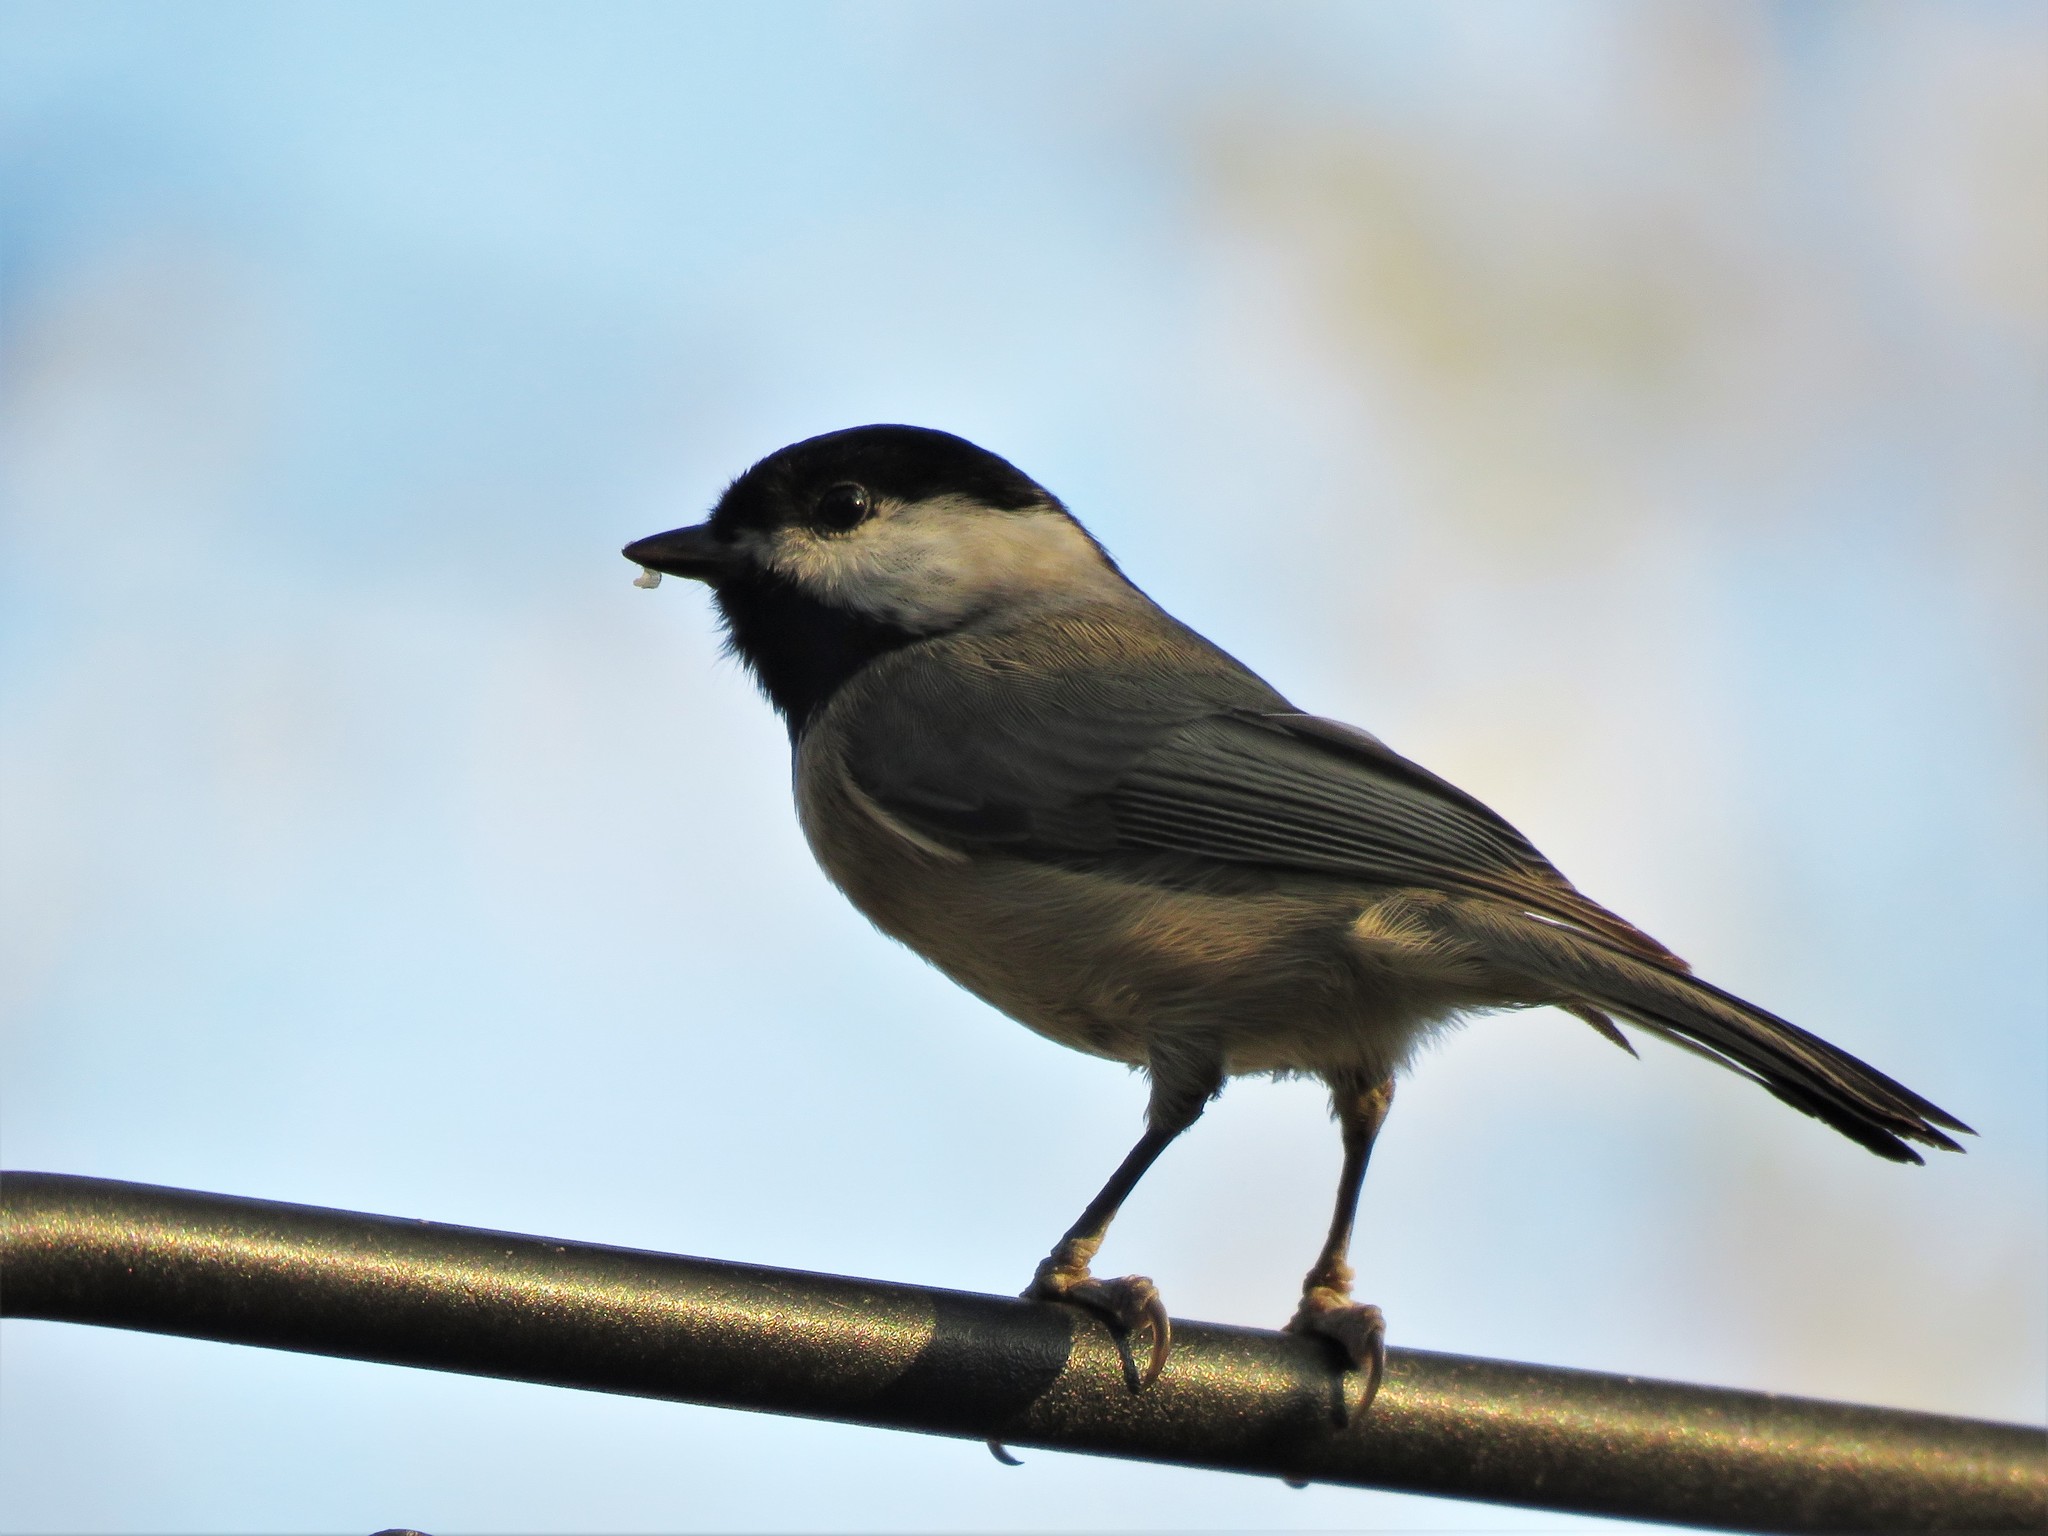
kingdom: Animalia
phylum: Chordata
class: Aves
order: Passeriformes
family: Paridae
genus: Poecile
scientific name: Poecile carolinensis
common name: Carolina chickadee
